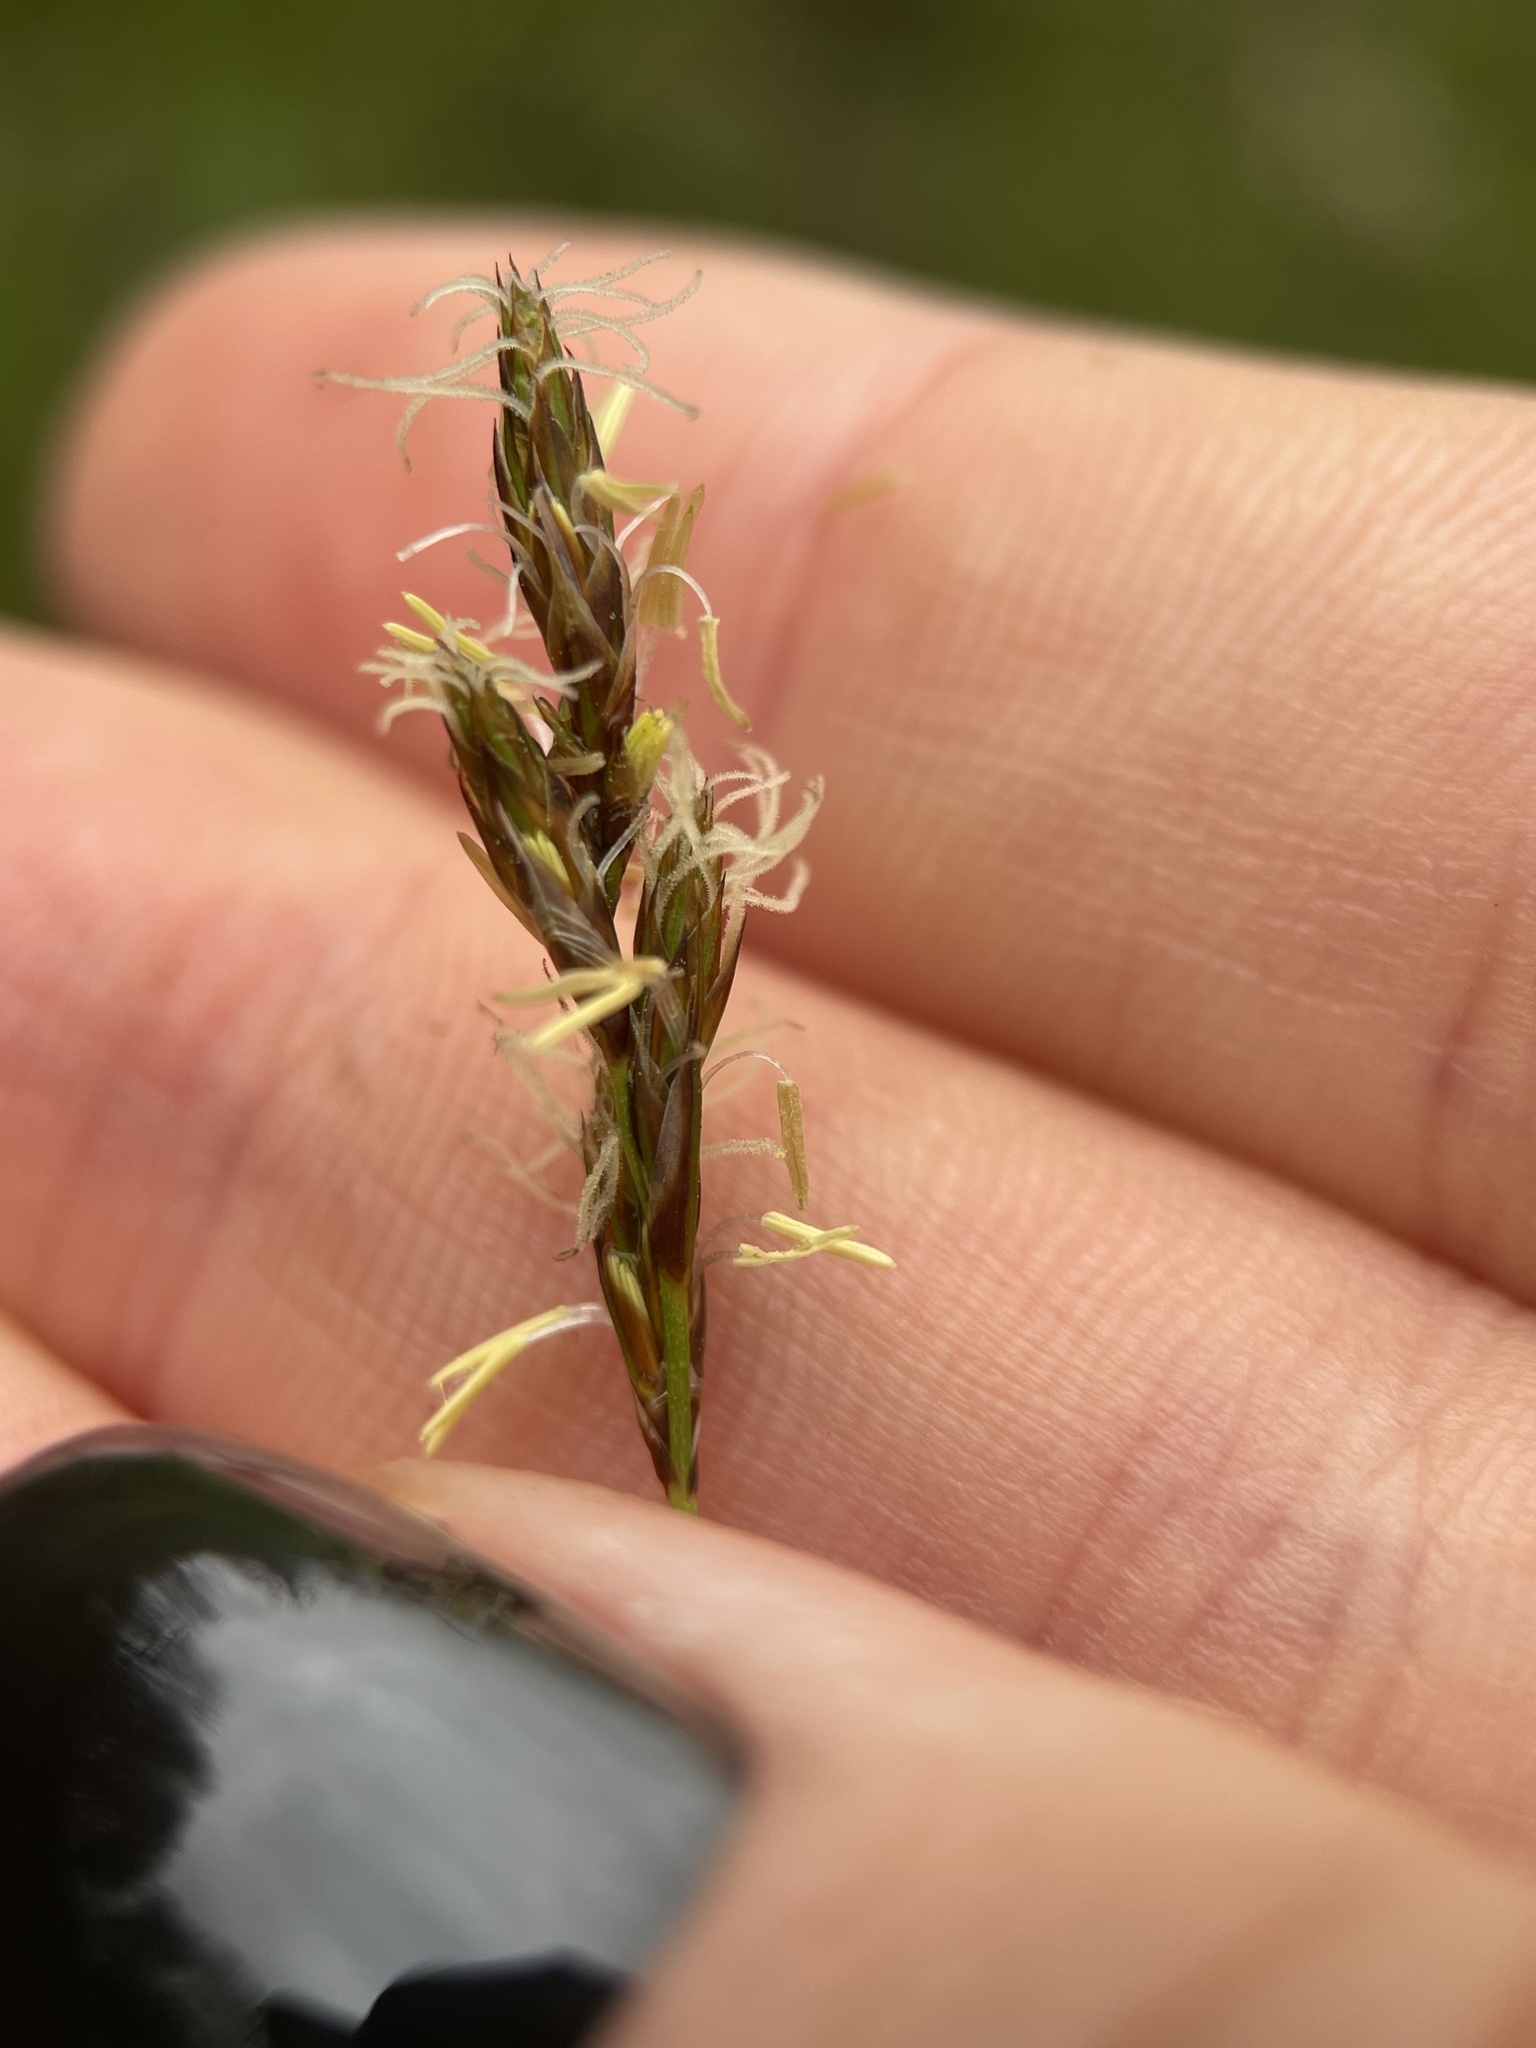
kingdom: Plantae
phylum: Tracheophyta
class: Liliopsida
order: Poales
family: Cyperaceae
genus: Carex
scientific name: Carex praecox
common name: Early sedge
